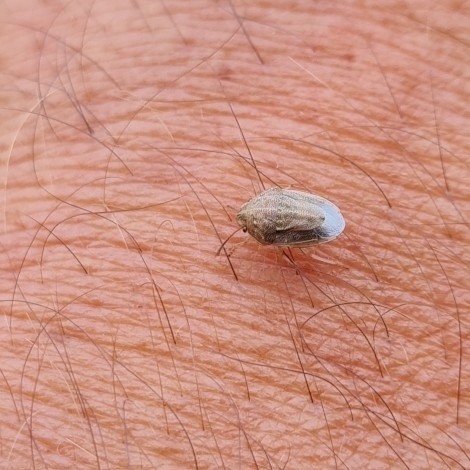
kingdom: Animalia
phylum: Arthropoda
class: Insecta
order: Hemiptera
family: Pentatomidae
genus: Neottiglossa
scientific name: Neottiglossa bifida
